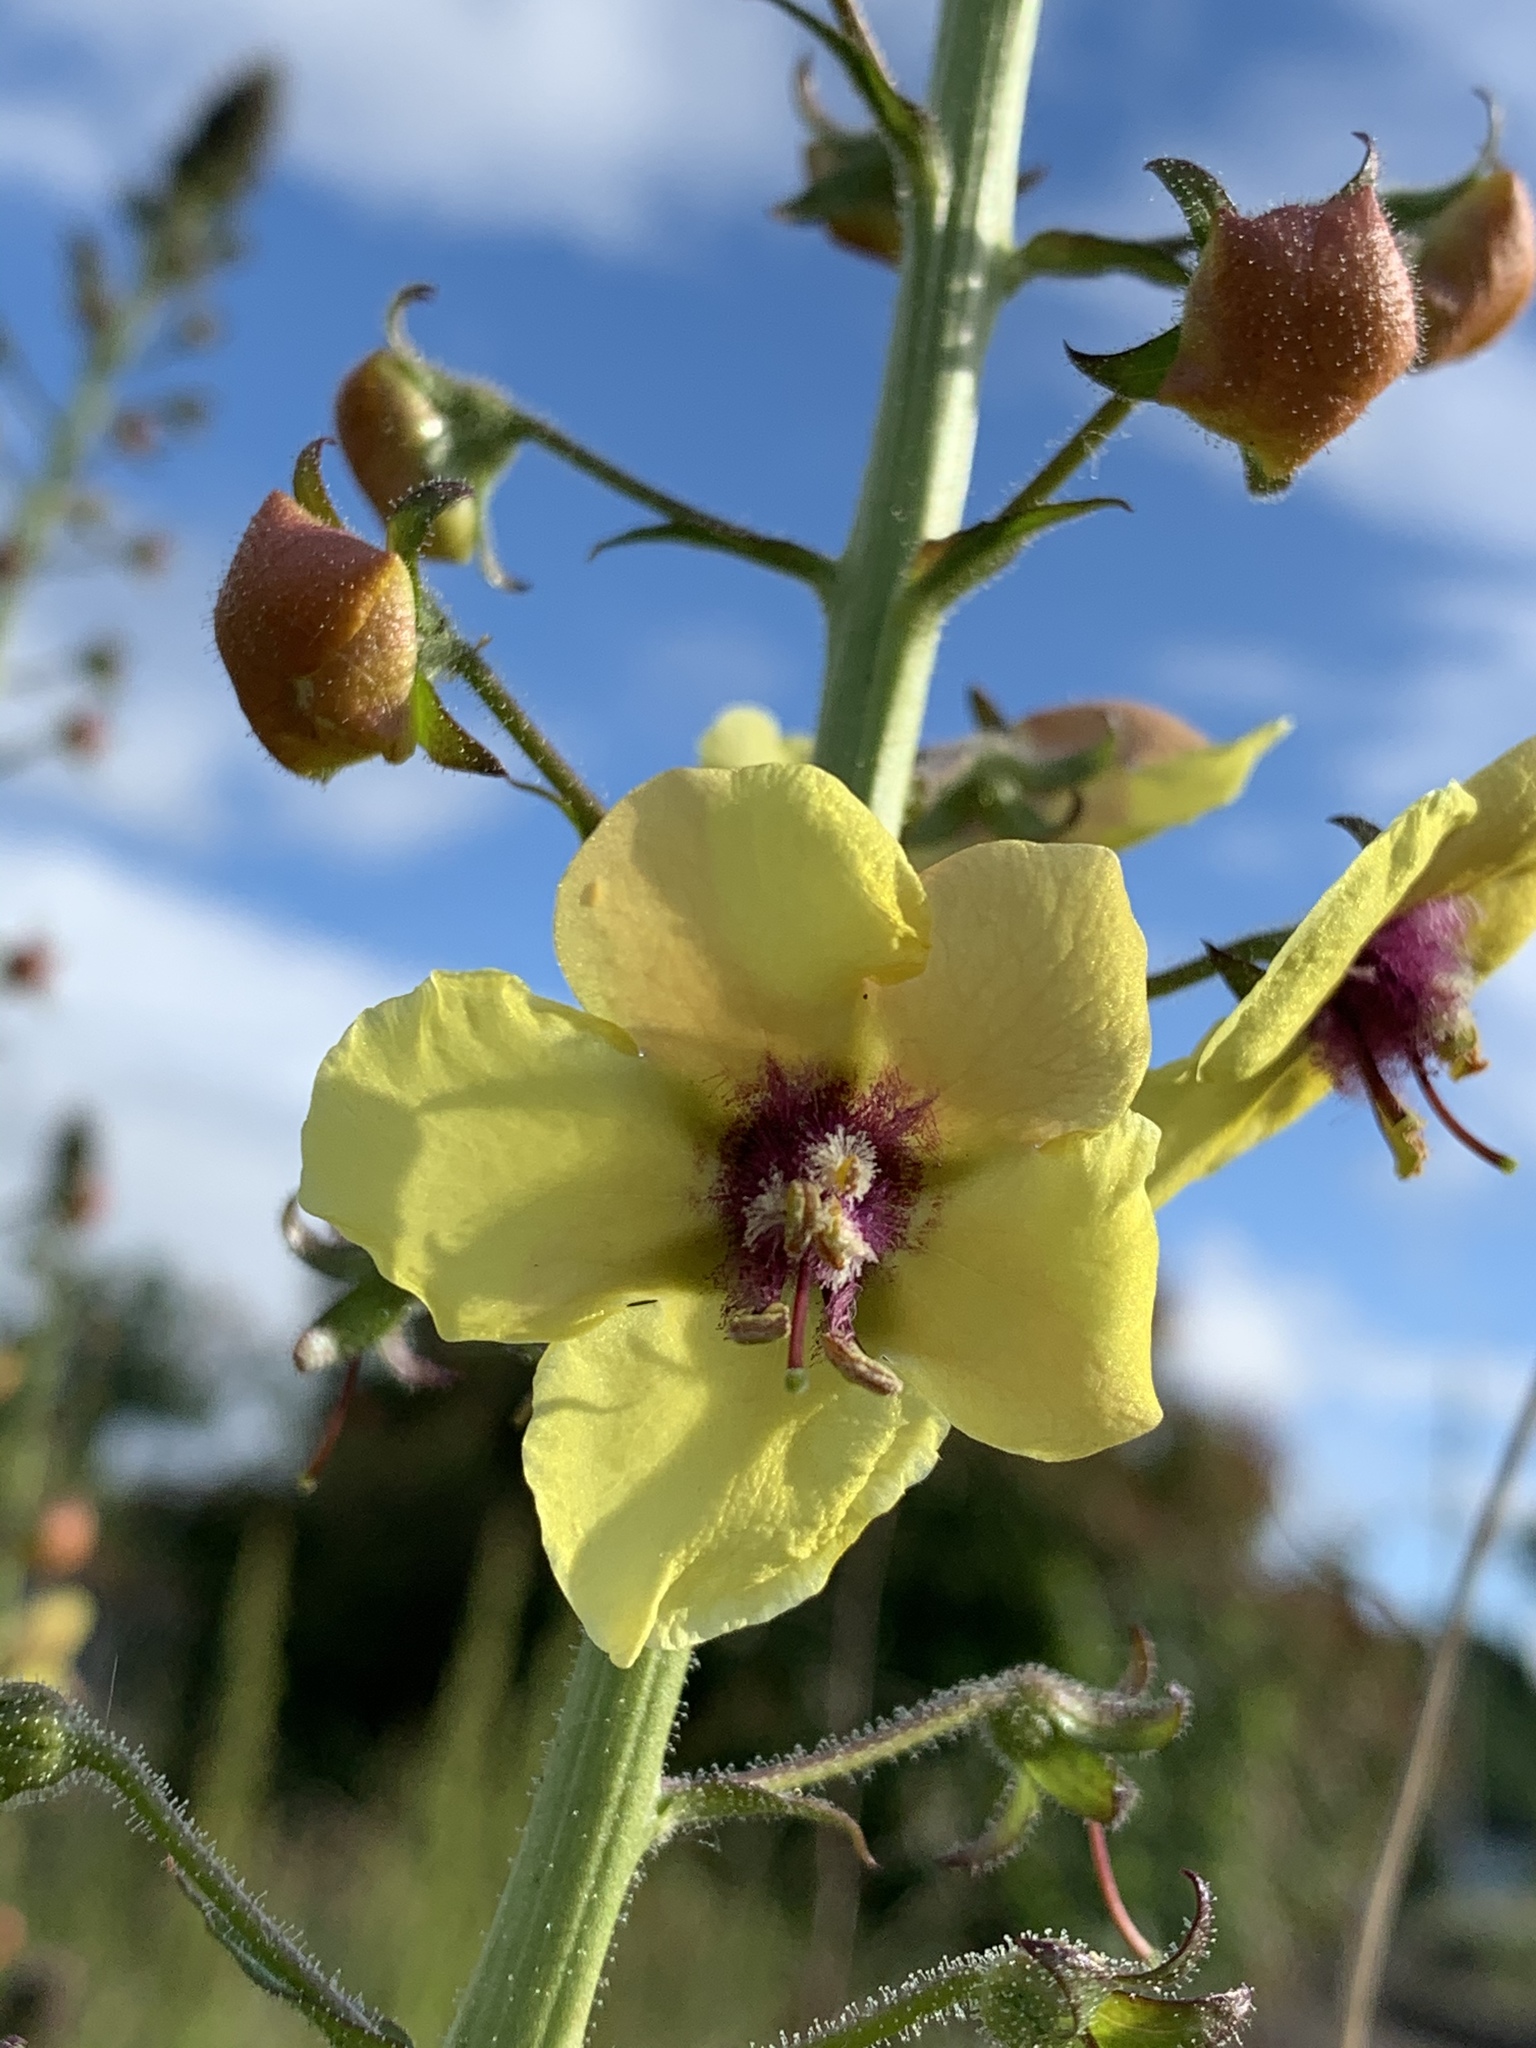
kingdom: Plantae
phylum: Tracheophyta
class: Magnoliopsida
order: Lamiales
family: Scrophulariaceae
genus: Verbascum
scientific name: Verbascum blattaria
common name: Moth mullein
